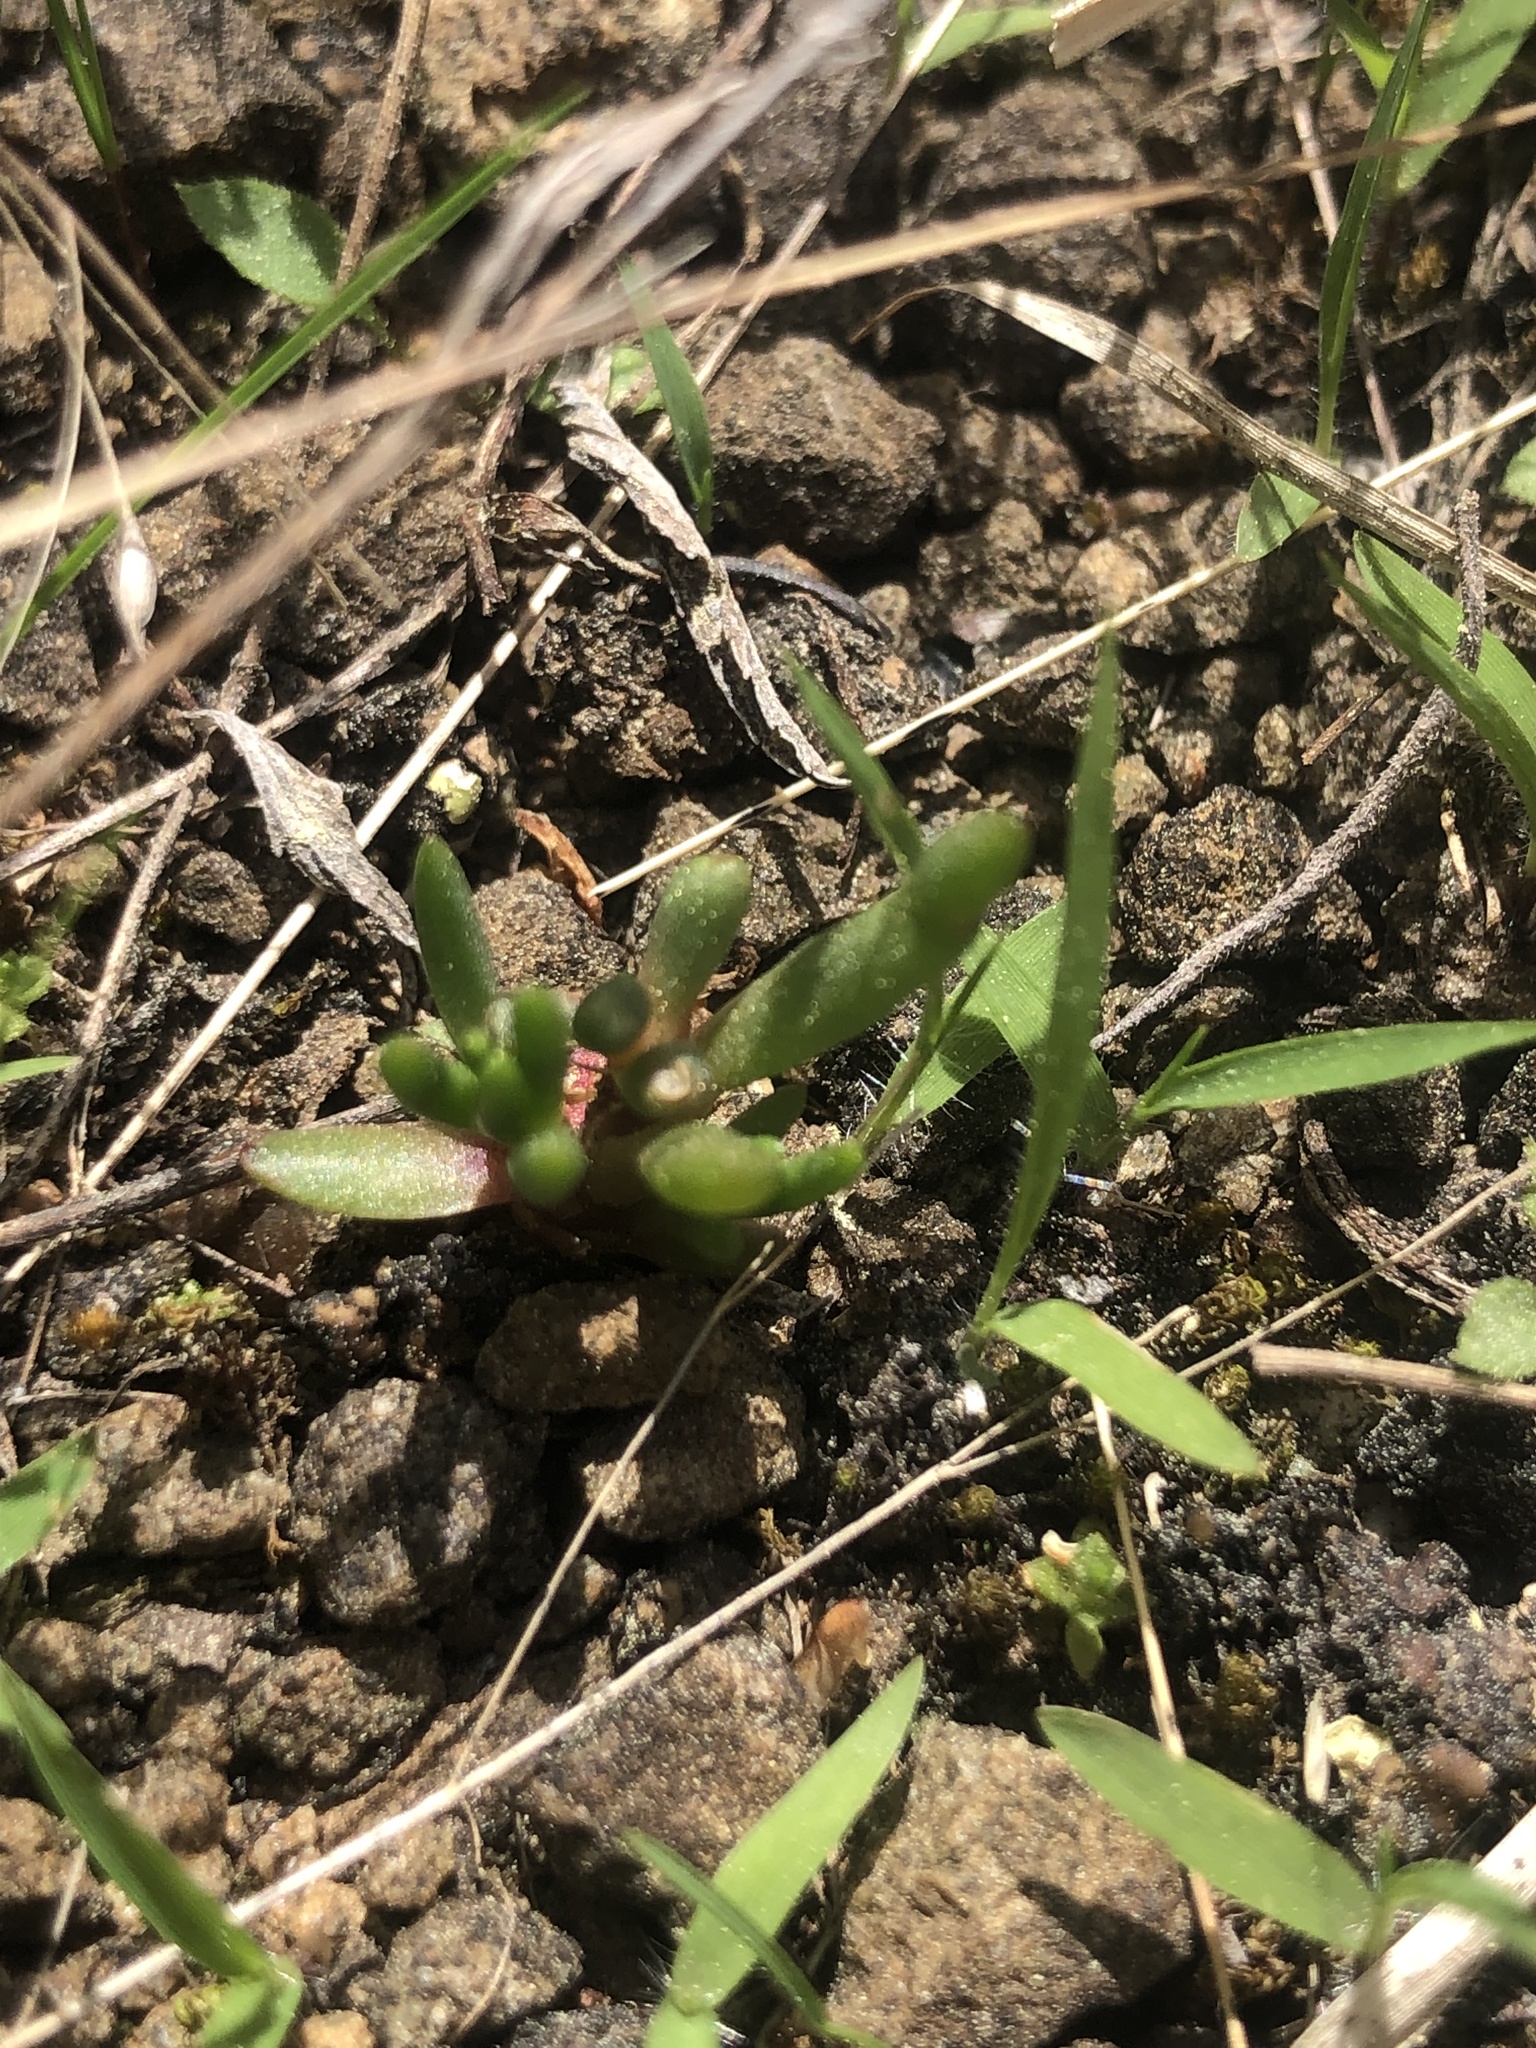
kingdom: Plantae
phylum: Tracheophyta
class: Magnoliopsida
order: Caryophyllales
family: Montiaceae
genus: Phemeranthus
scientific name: Phemeranthus piedmontanus
